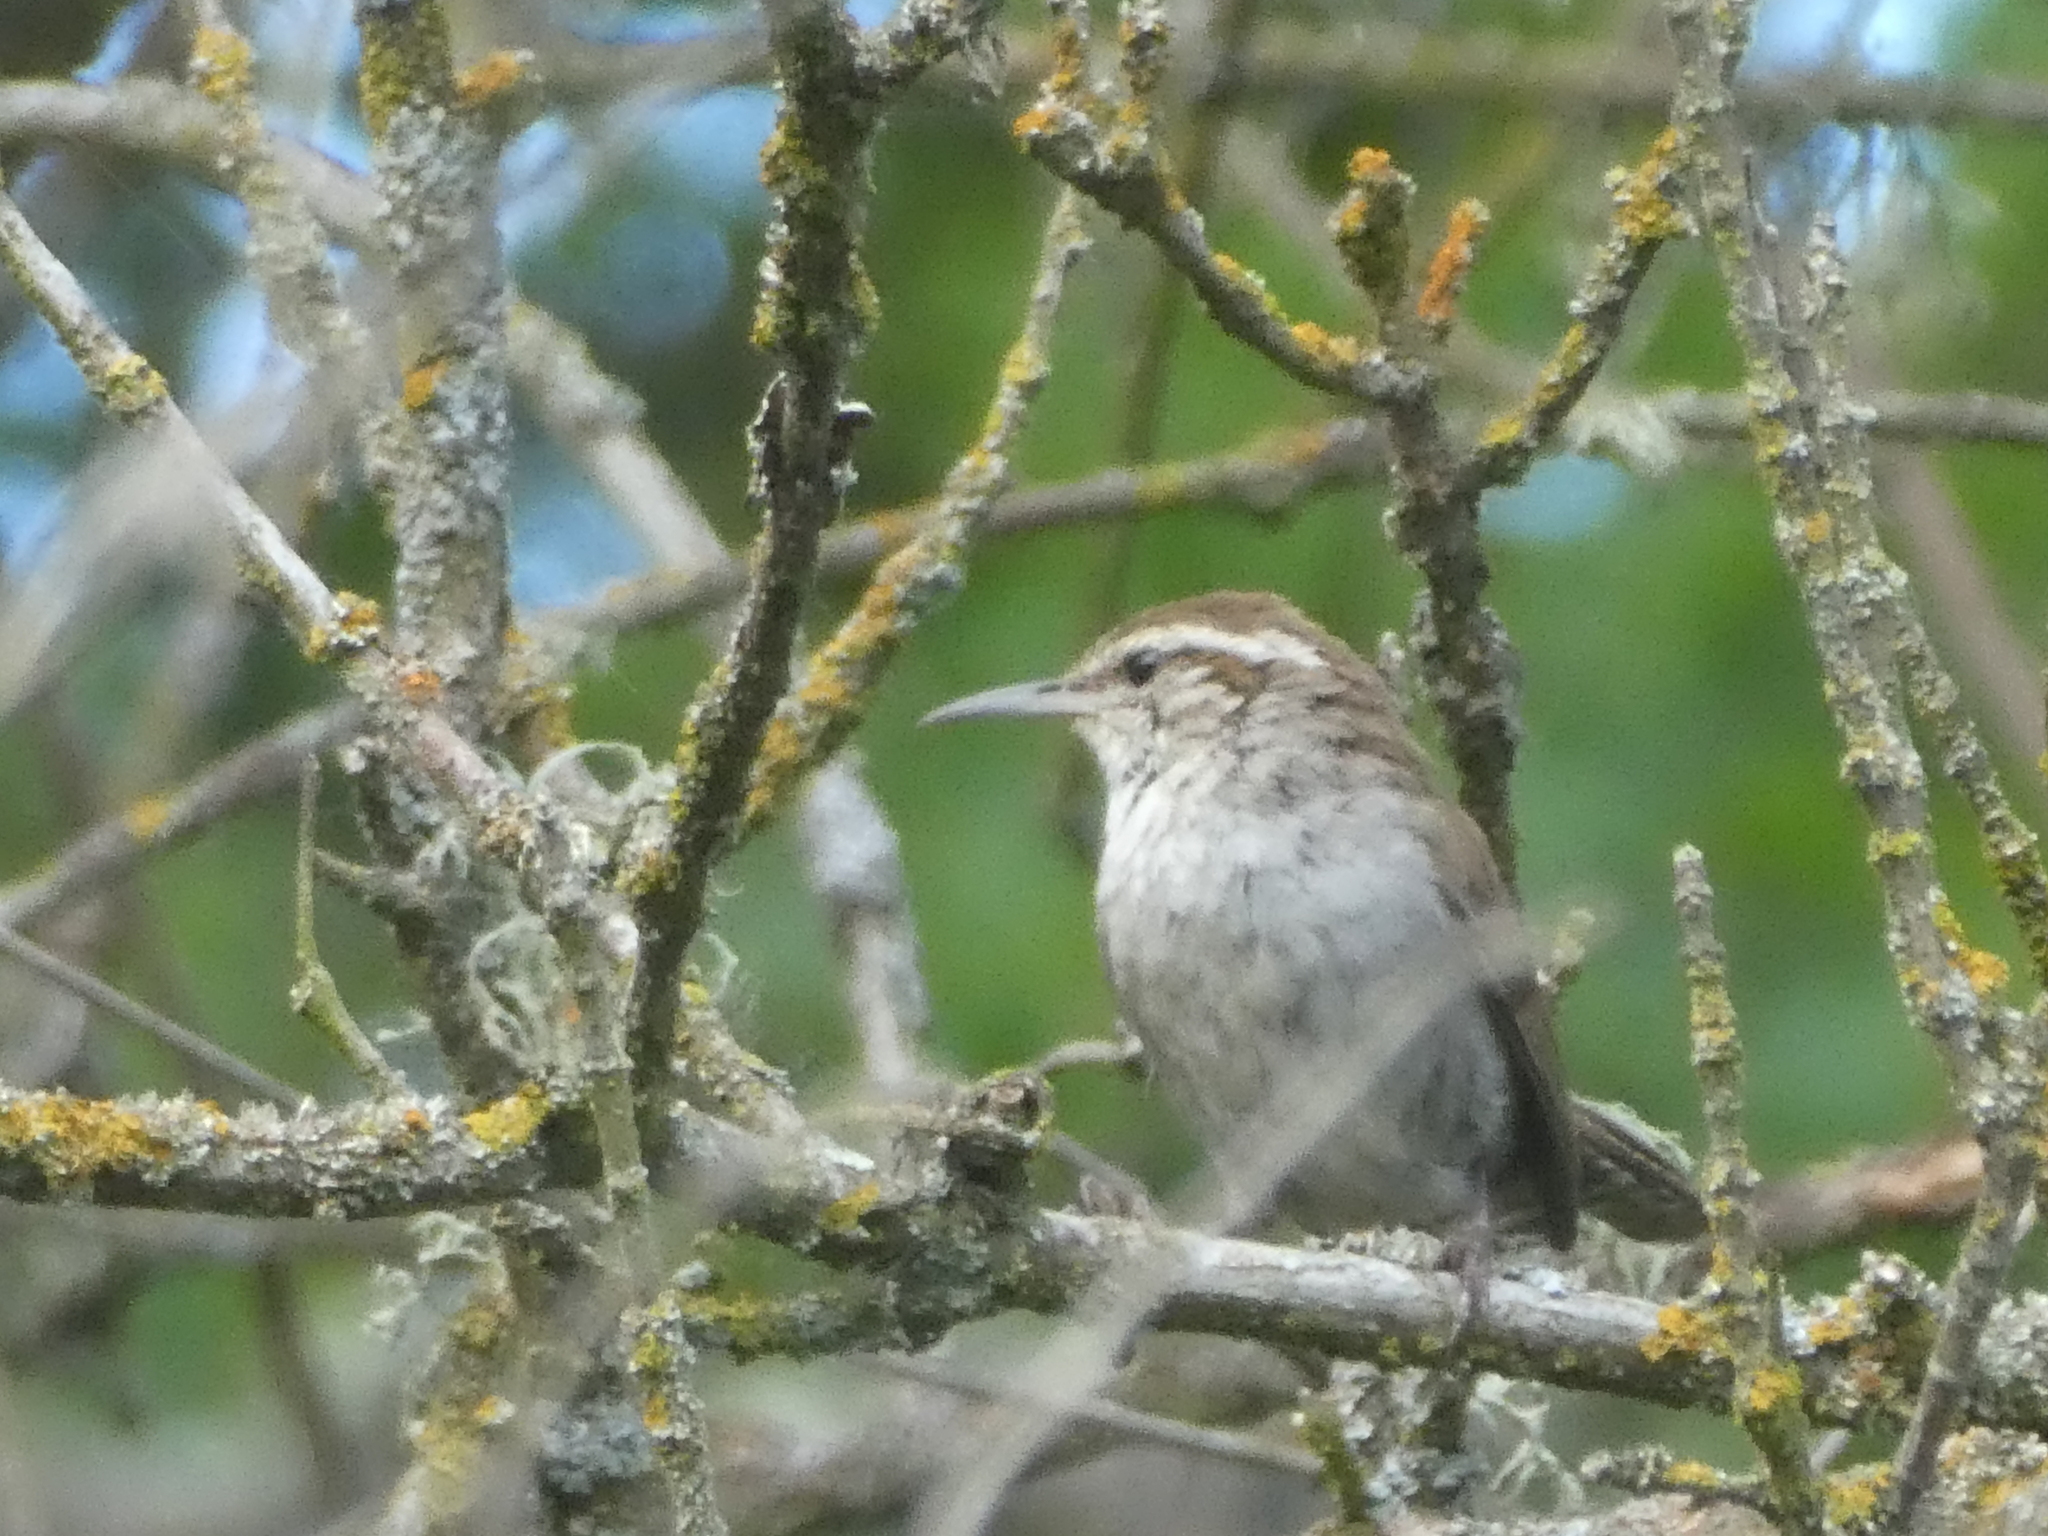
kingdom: Animalia
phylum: Chordata
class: Aves
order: Passeriformes
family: Troglodytidae
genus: Thryomanes
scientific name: Thryomanes bewickii
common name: Bewick's wren
